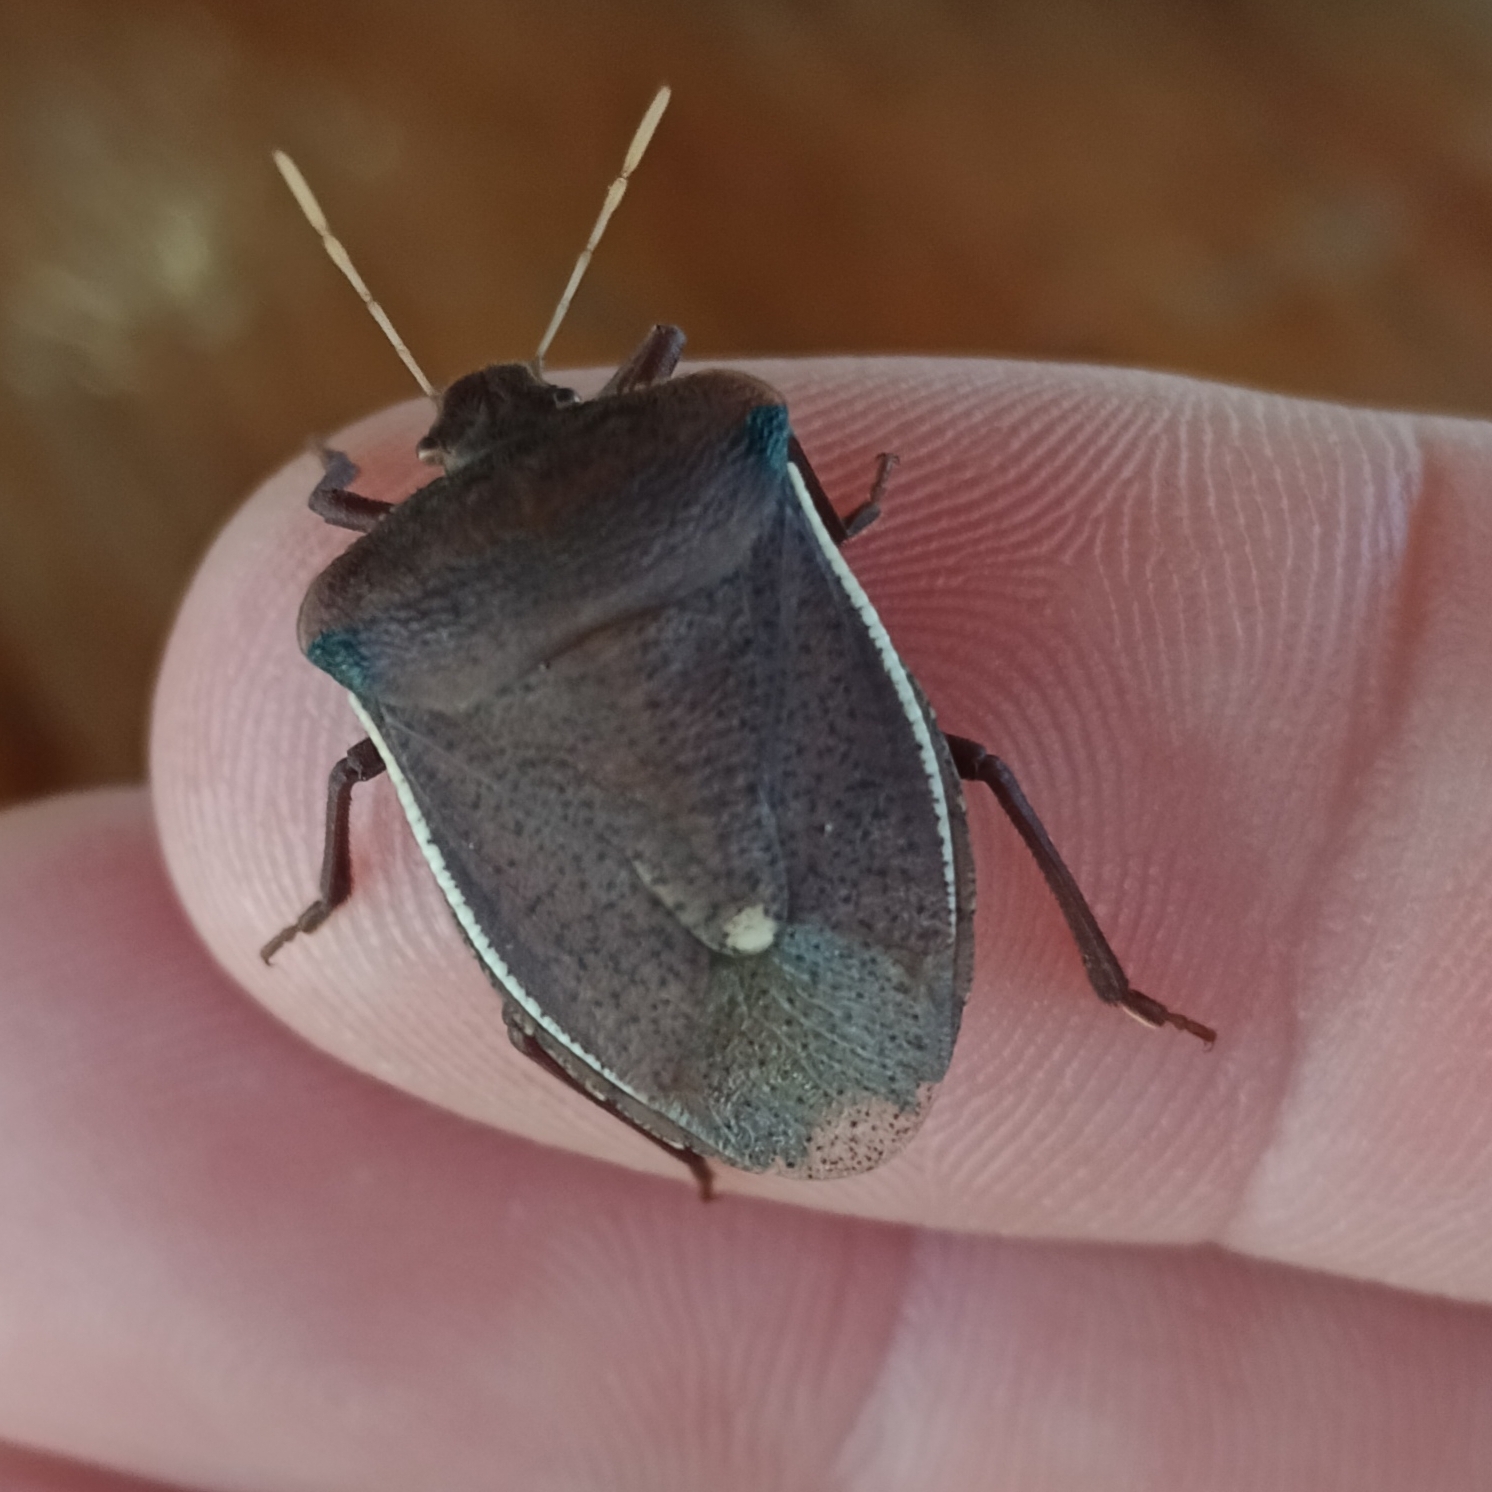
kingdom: Animalia
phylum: Arthropoda
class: Insecta
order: Hemiptera
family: Pentatomidae
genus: Basicryptus
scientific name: Basicryptus costalis
